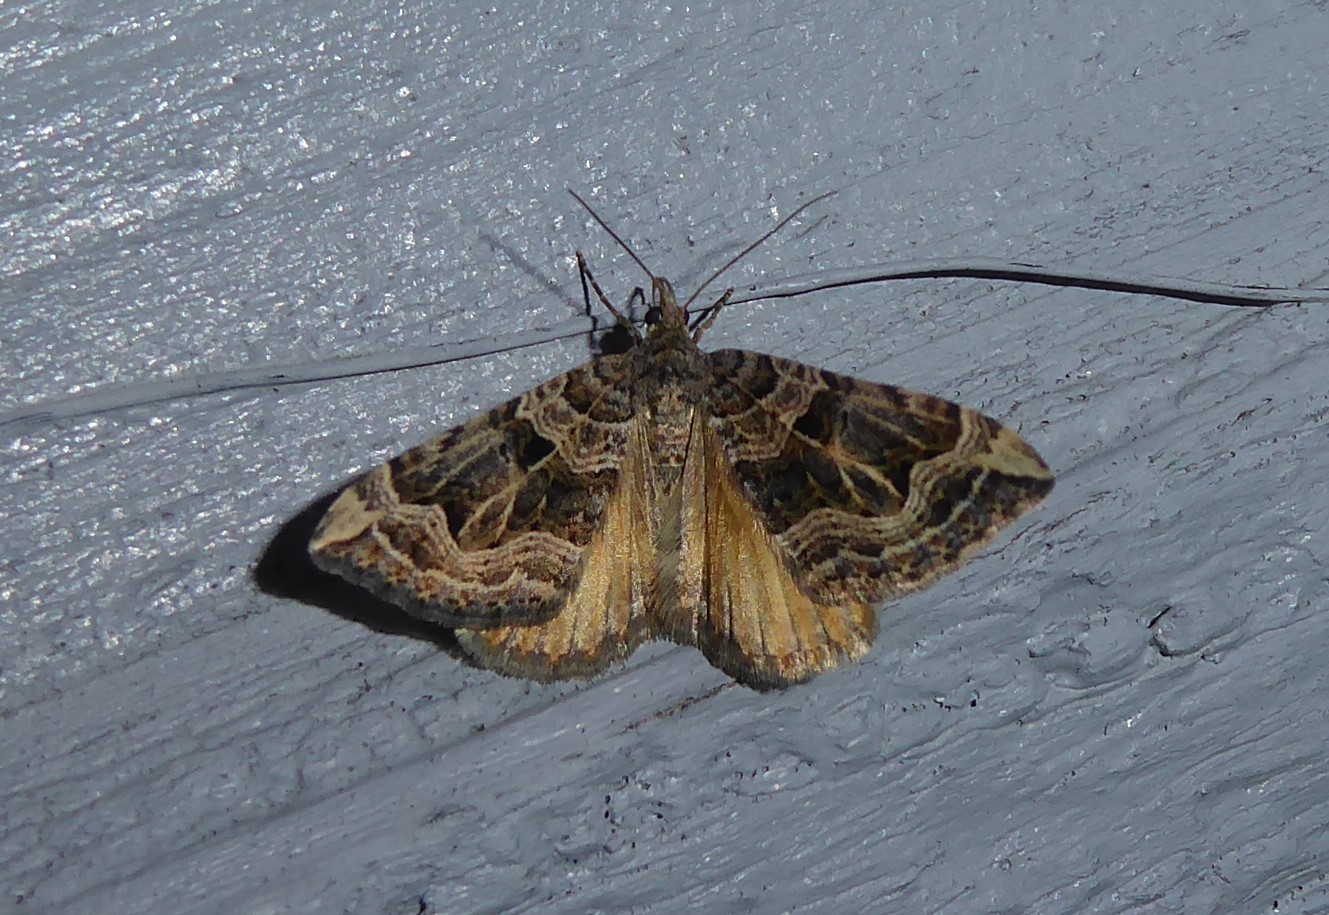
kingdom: Animalia
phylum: Arthropoda
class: Insecta
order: Lepidoptera
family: Geometridae
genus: Xanthorhoe
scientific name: Xanthorhoe semifissata
